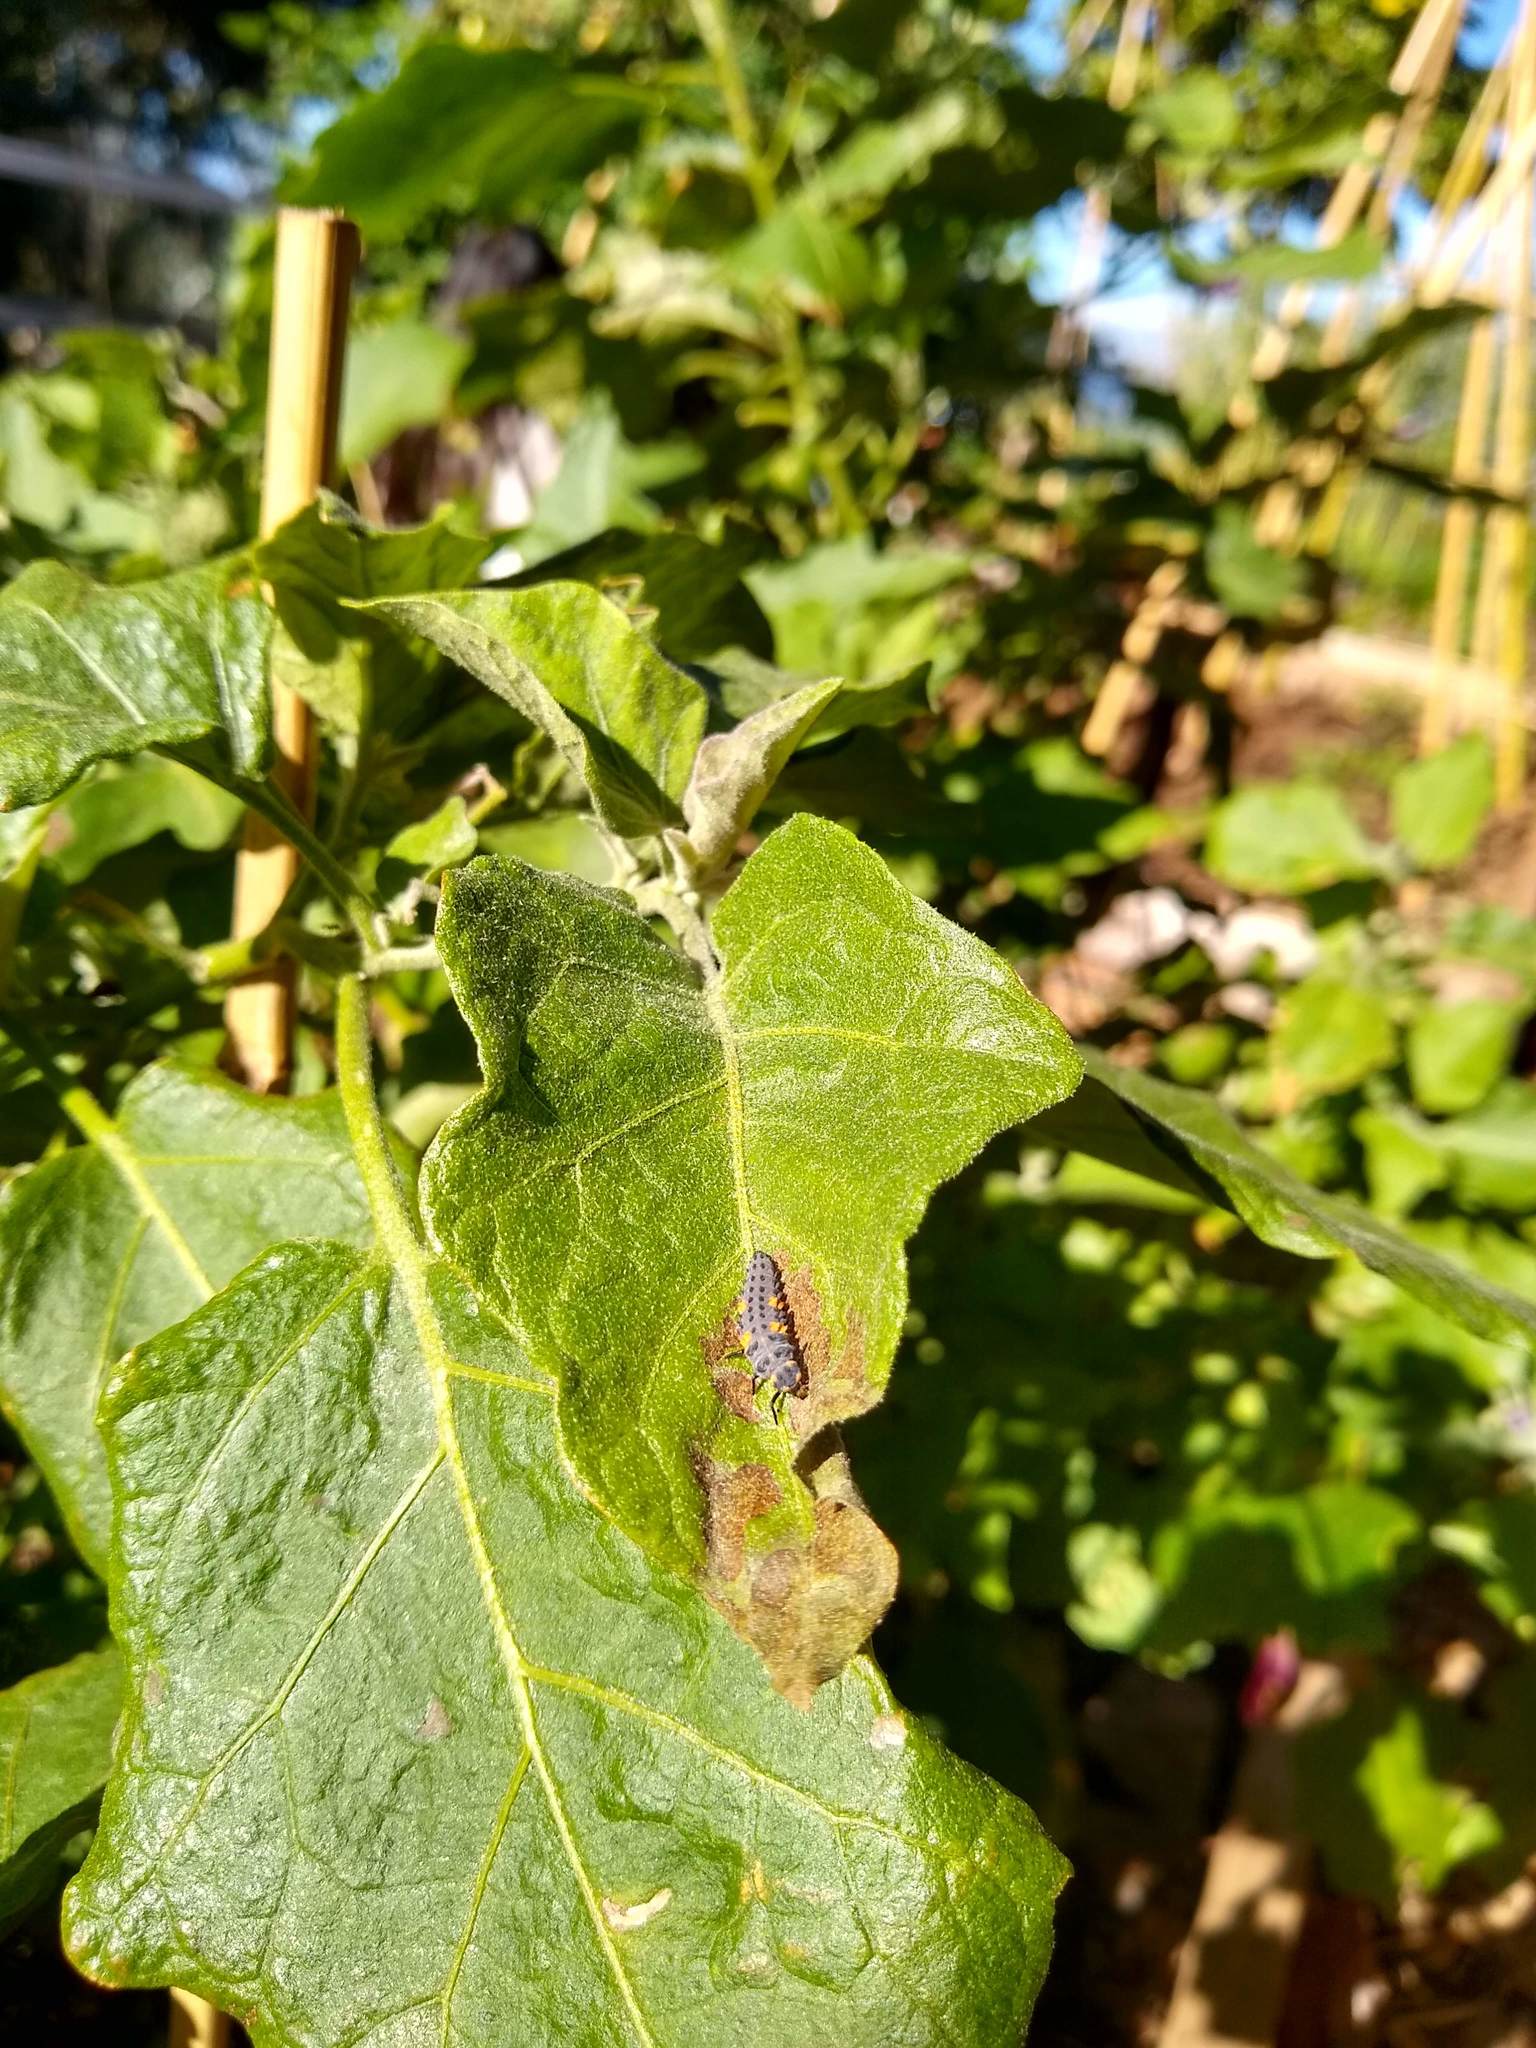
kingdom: Animalia
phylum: Arthropoda
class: Insecta
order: Coleoptera
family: Coccinellidae
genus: Coccinella
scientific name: Coccinella septempunctata
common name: Sevenspotted lady beetle
